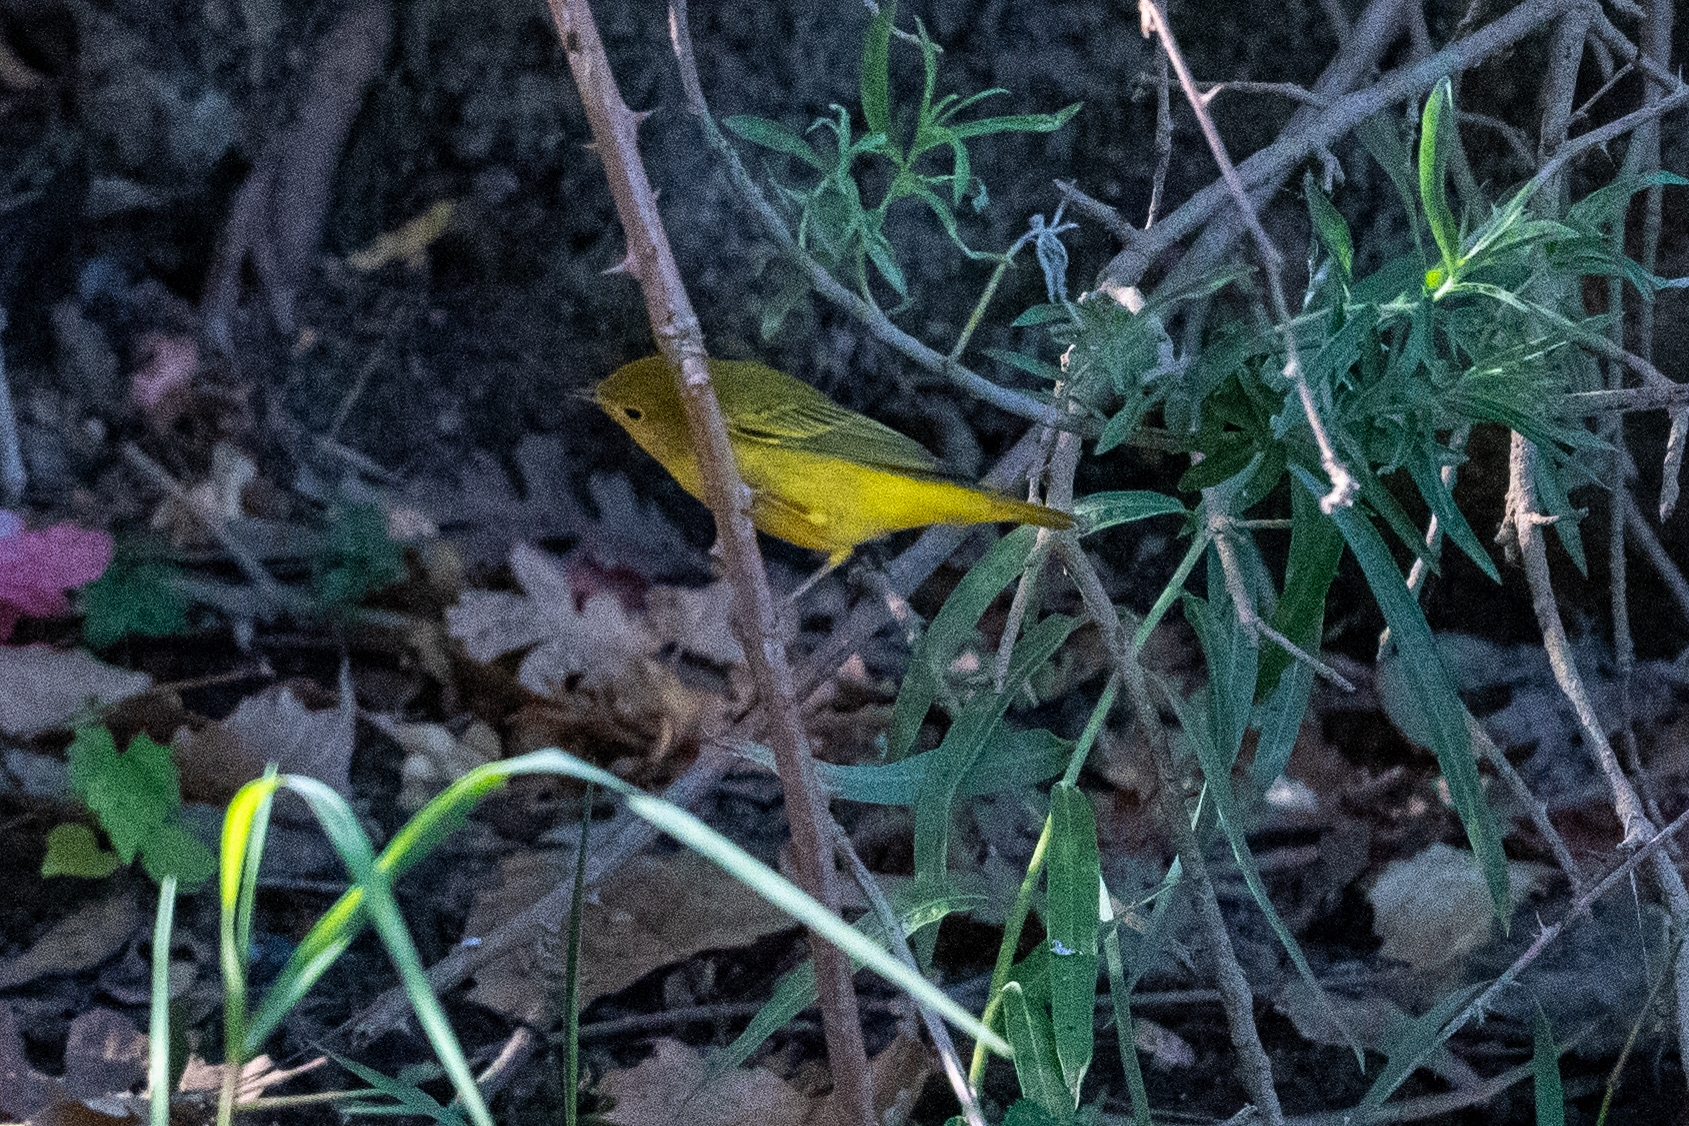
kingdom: Animalia
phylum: Chordata
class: Aves
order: Passeriformes
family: Parulidae
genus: Setophaga
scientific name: Setophaga petechia
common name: Yellow warbler
